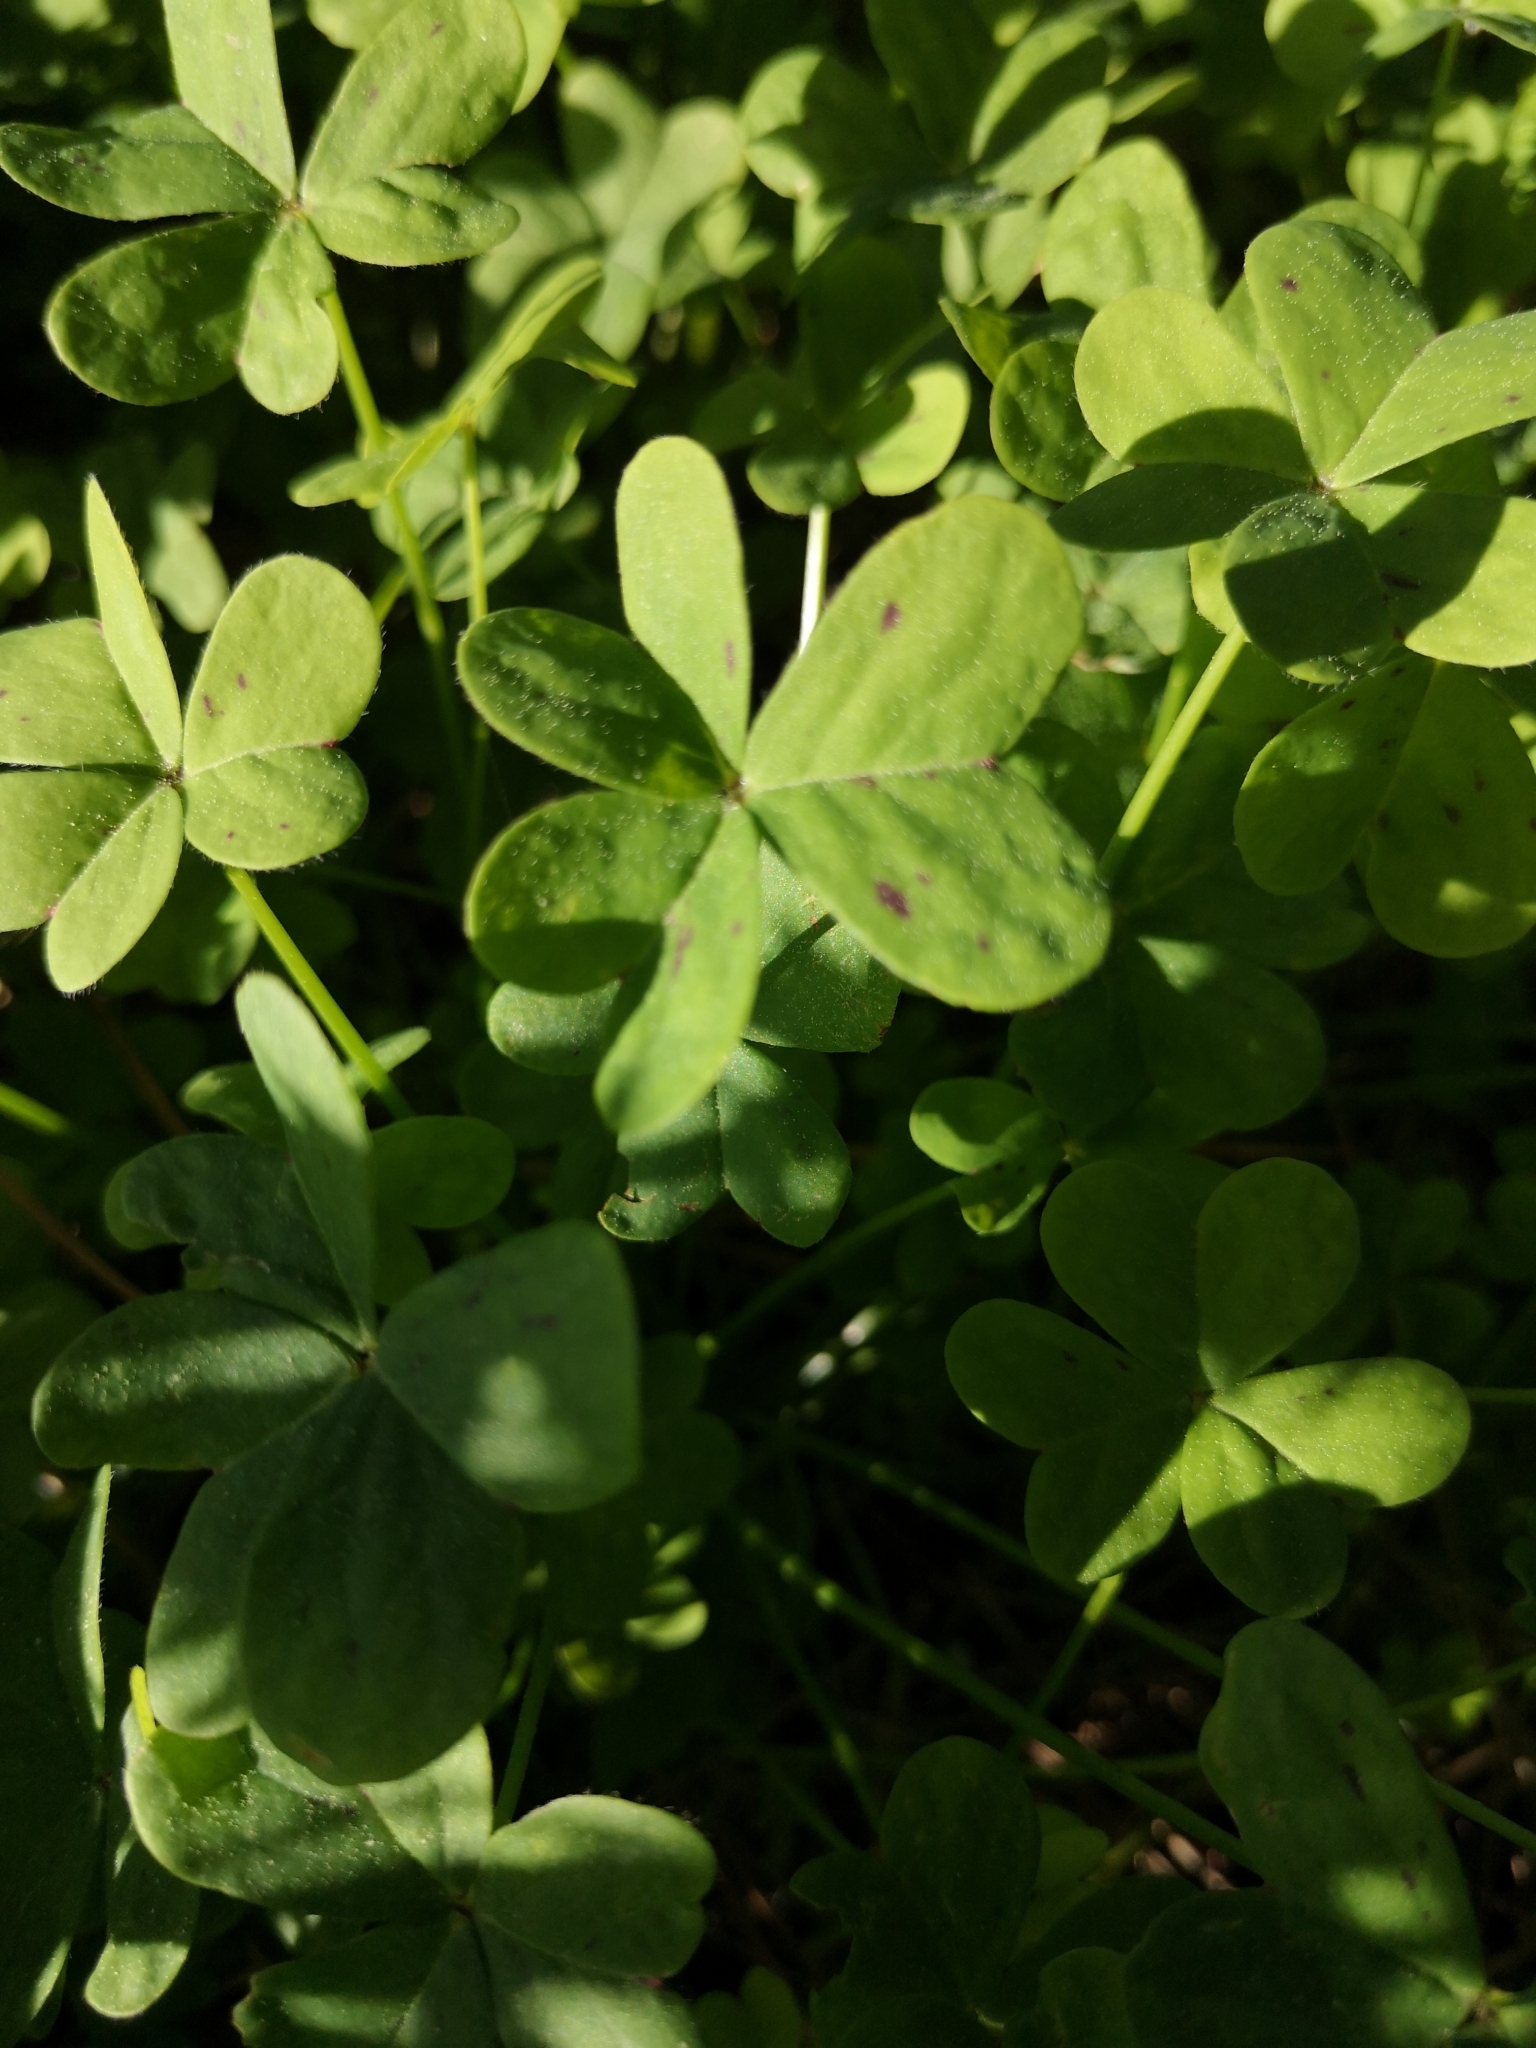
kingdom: Plantae
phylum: Tracheophyta
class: Magnoliopsida
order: Oxalidales
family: Oxalidaceae
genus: Oxalis
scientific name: Oxalis pes-caprae
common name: Bermuda-buttercup
